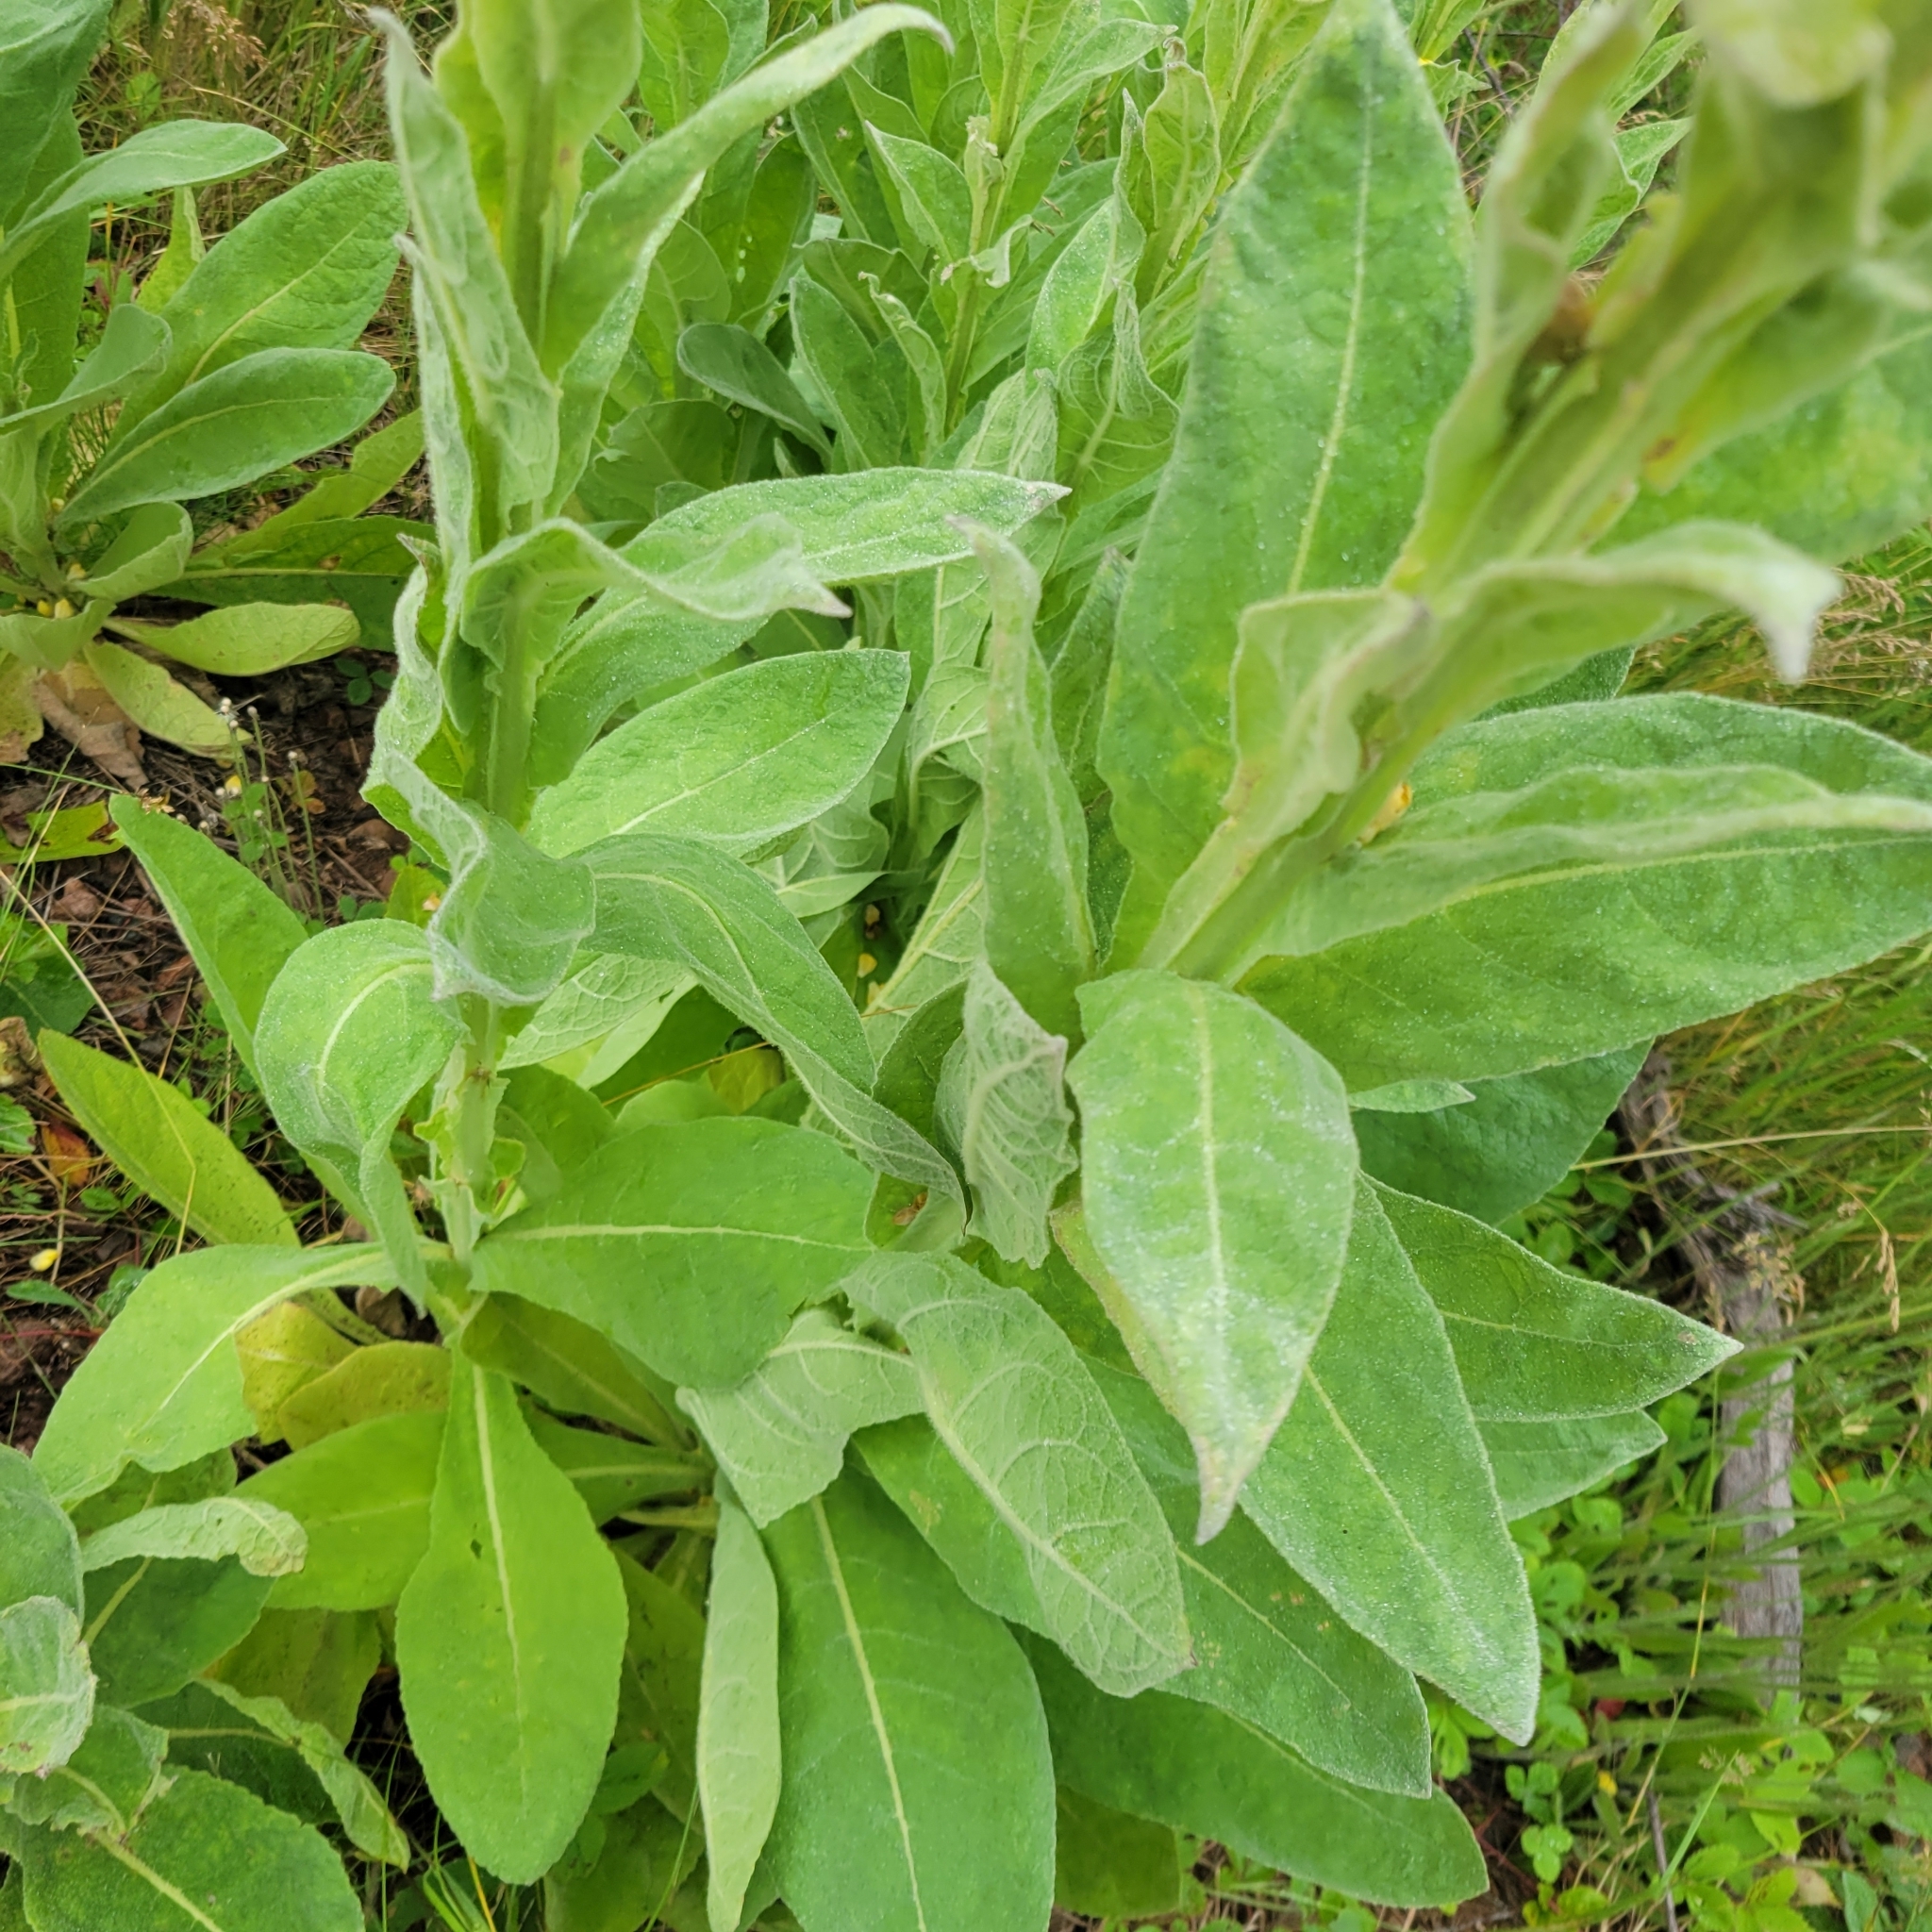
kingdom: Plantae
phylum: Tracheophyta
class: Magnoliopsida
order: Lamiales
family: Scrophulariaceae
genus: Verbascum
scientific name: Verbascum thapsus
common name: Common mullein
